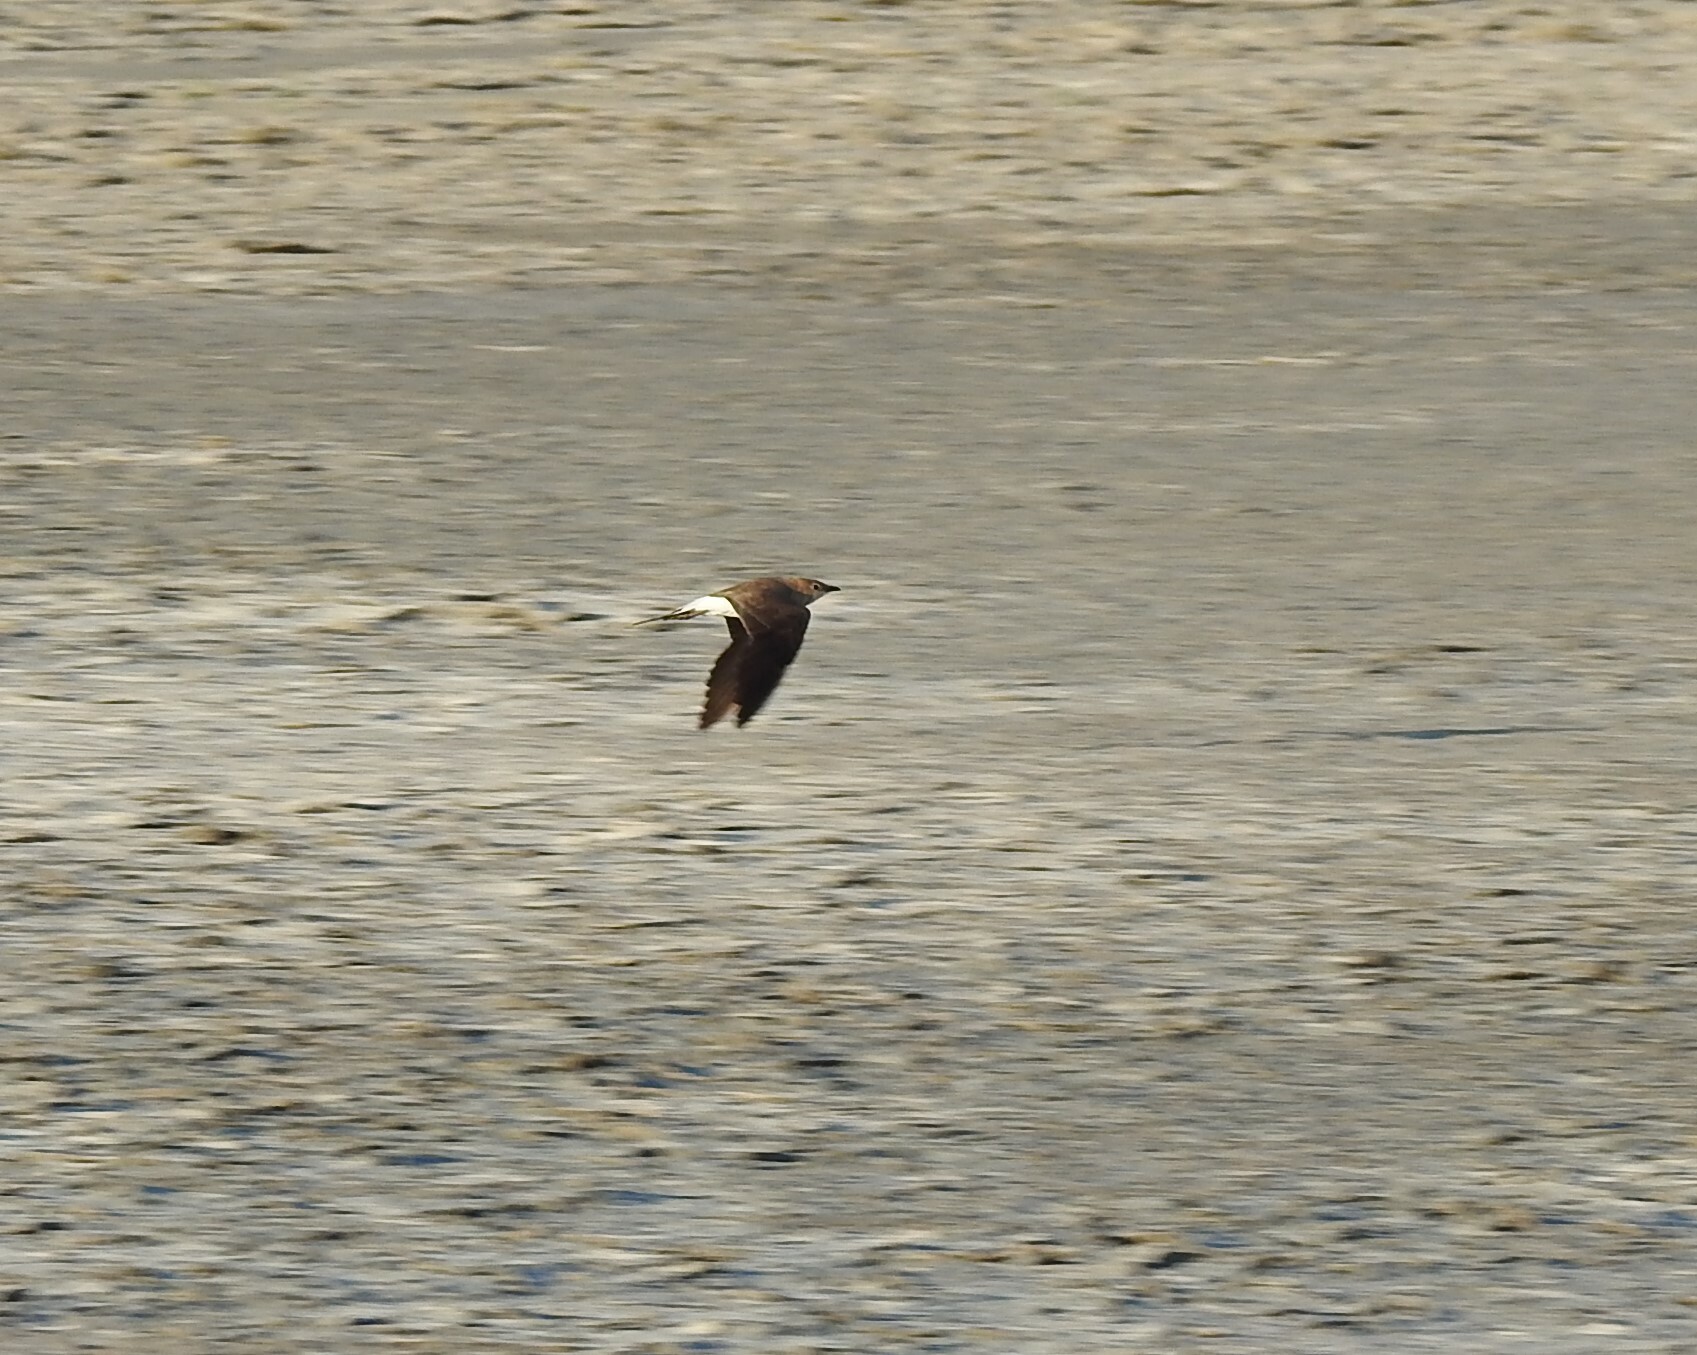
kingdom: Animalia
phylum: Chordata
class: Aves
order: Charadriiformes
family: Glareolidae
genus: Glareola
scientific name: Glareola nordmanni
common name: Black-winged pratincole
